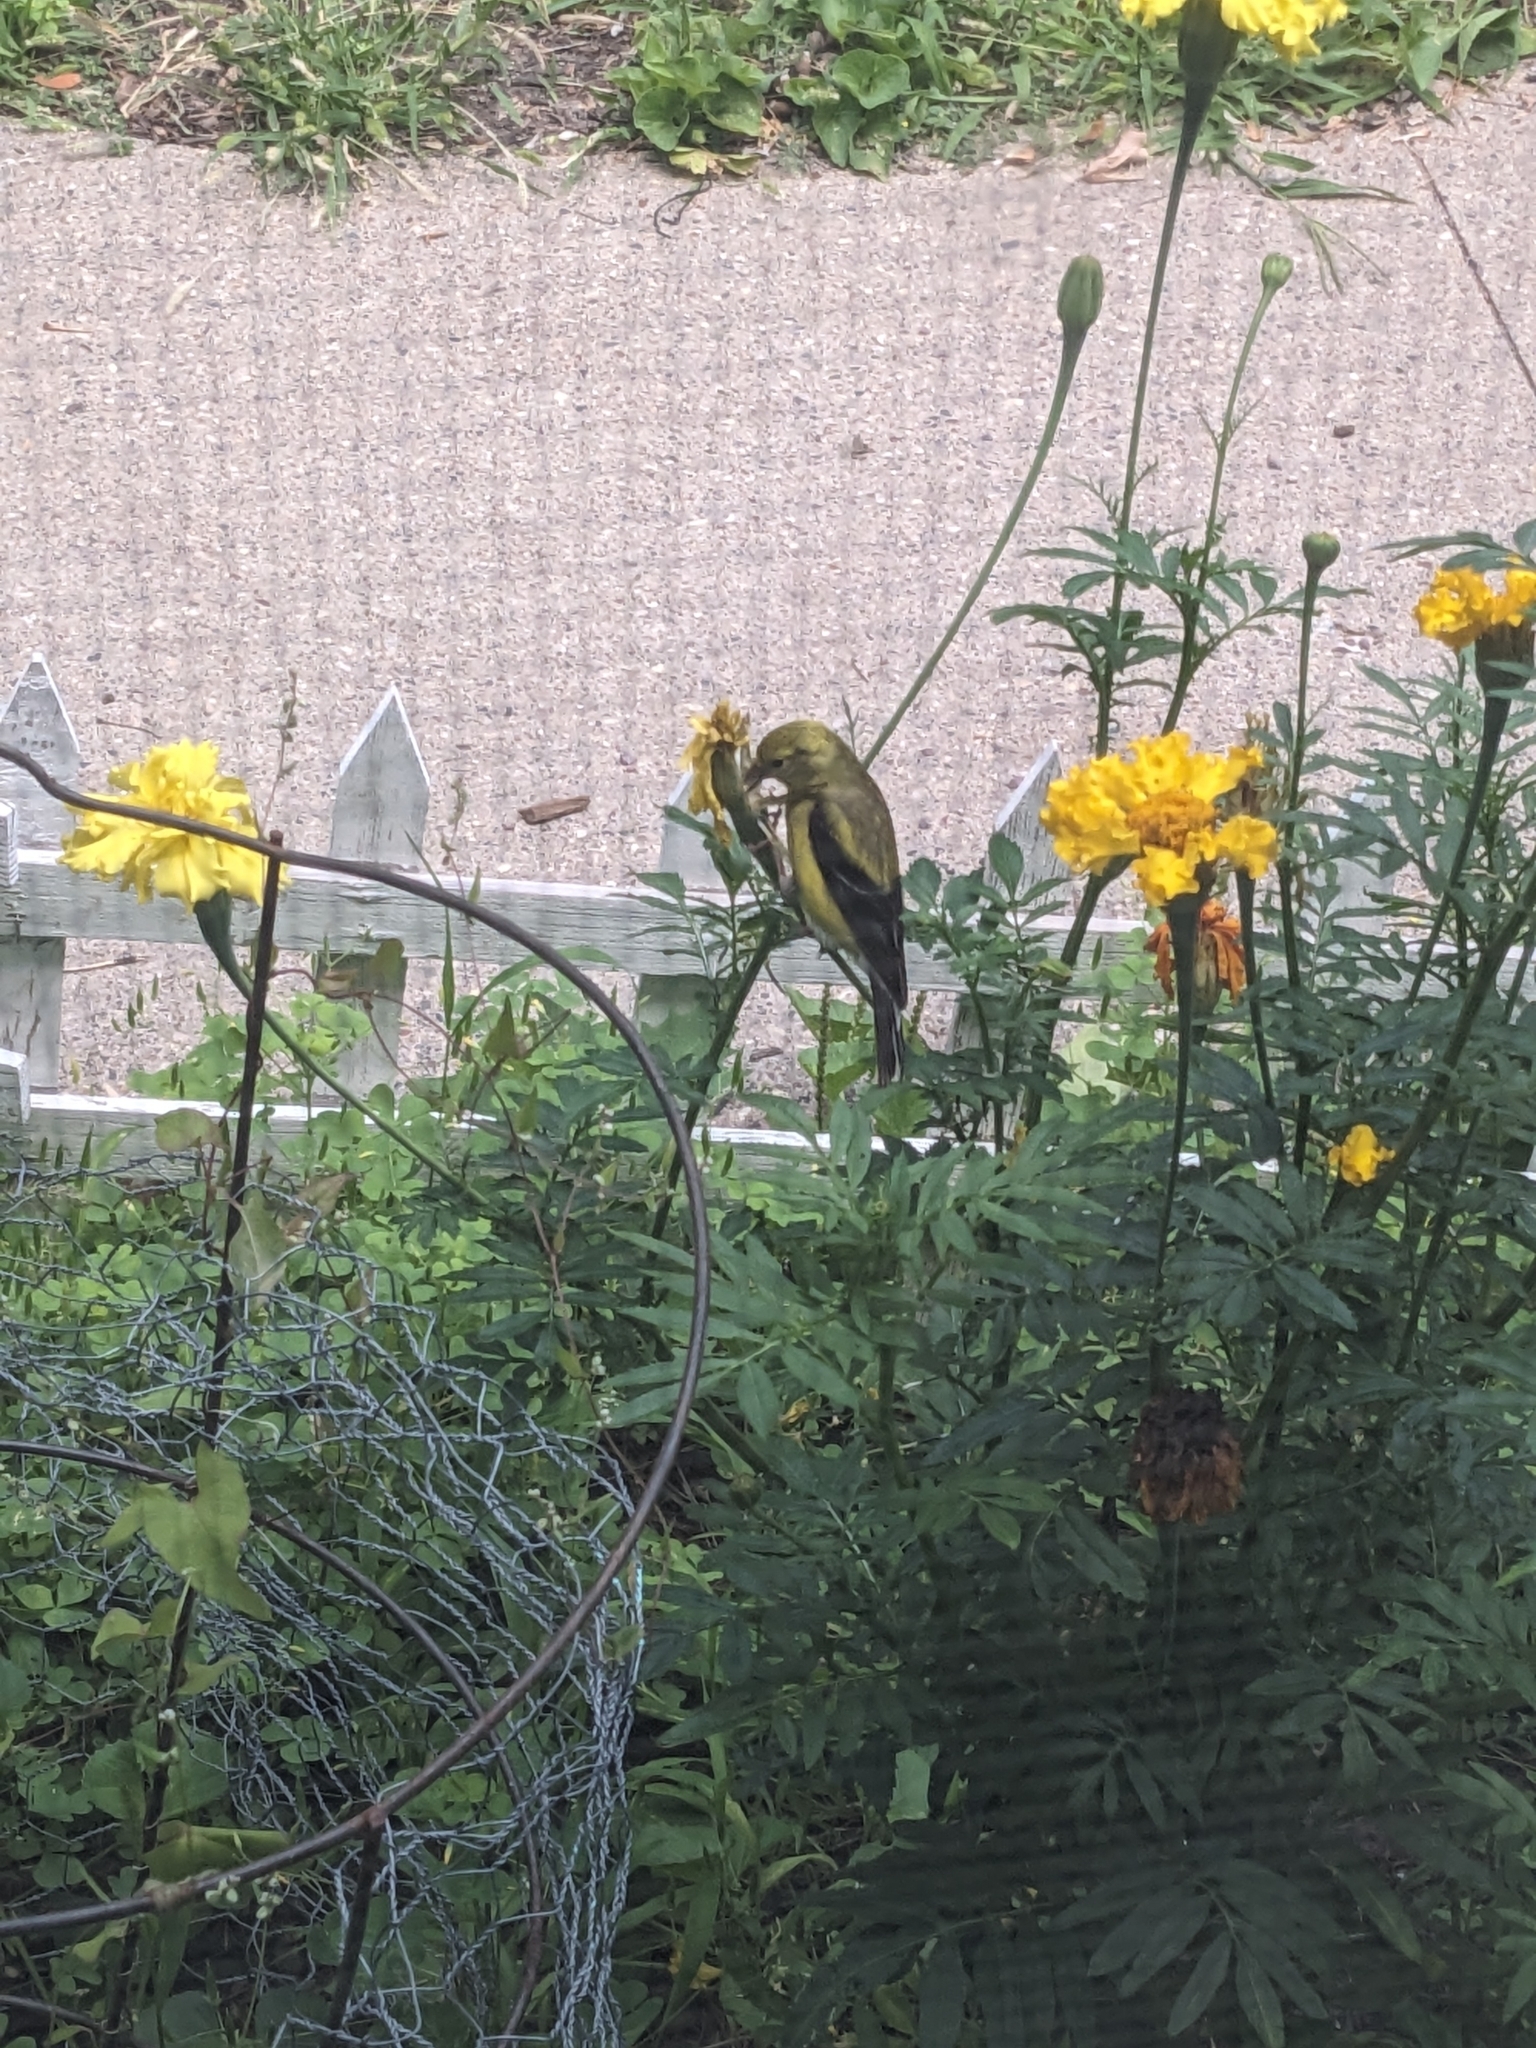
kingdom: Animalia
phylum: Chordata
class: Aves
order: Passeriformes
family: Fringillidae
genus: Spinus
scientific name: Spinus tristis
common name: American goldfinch
